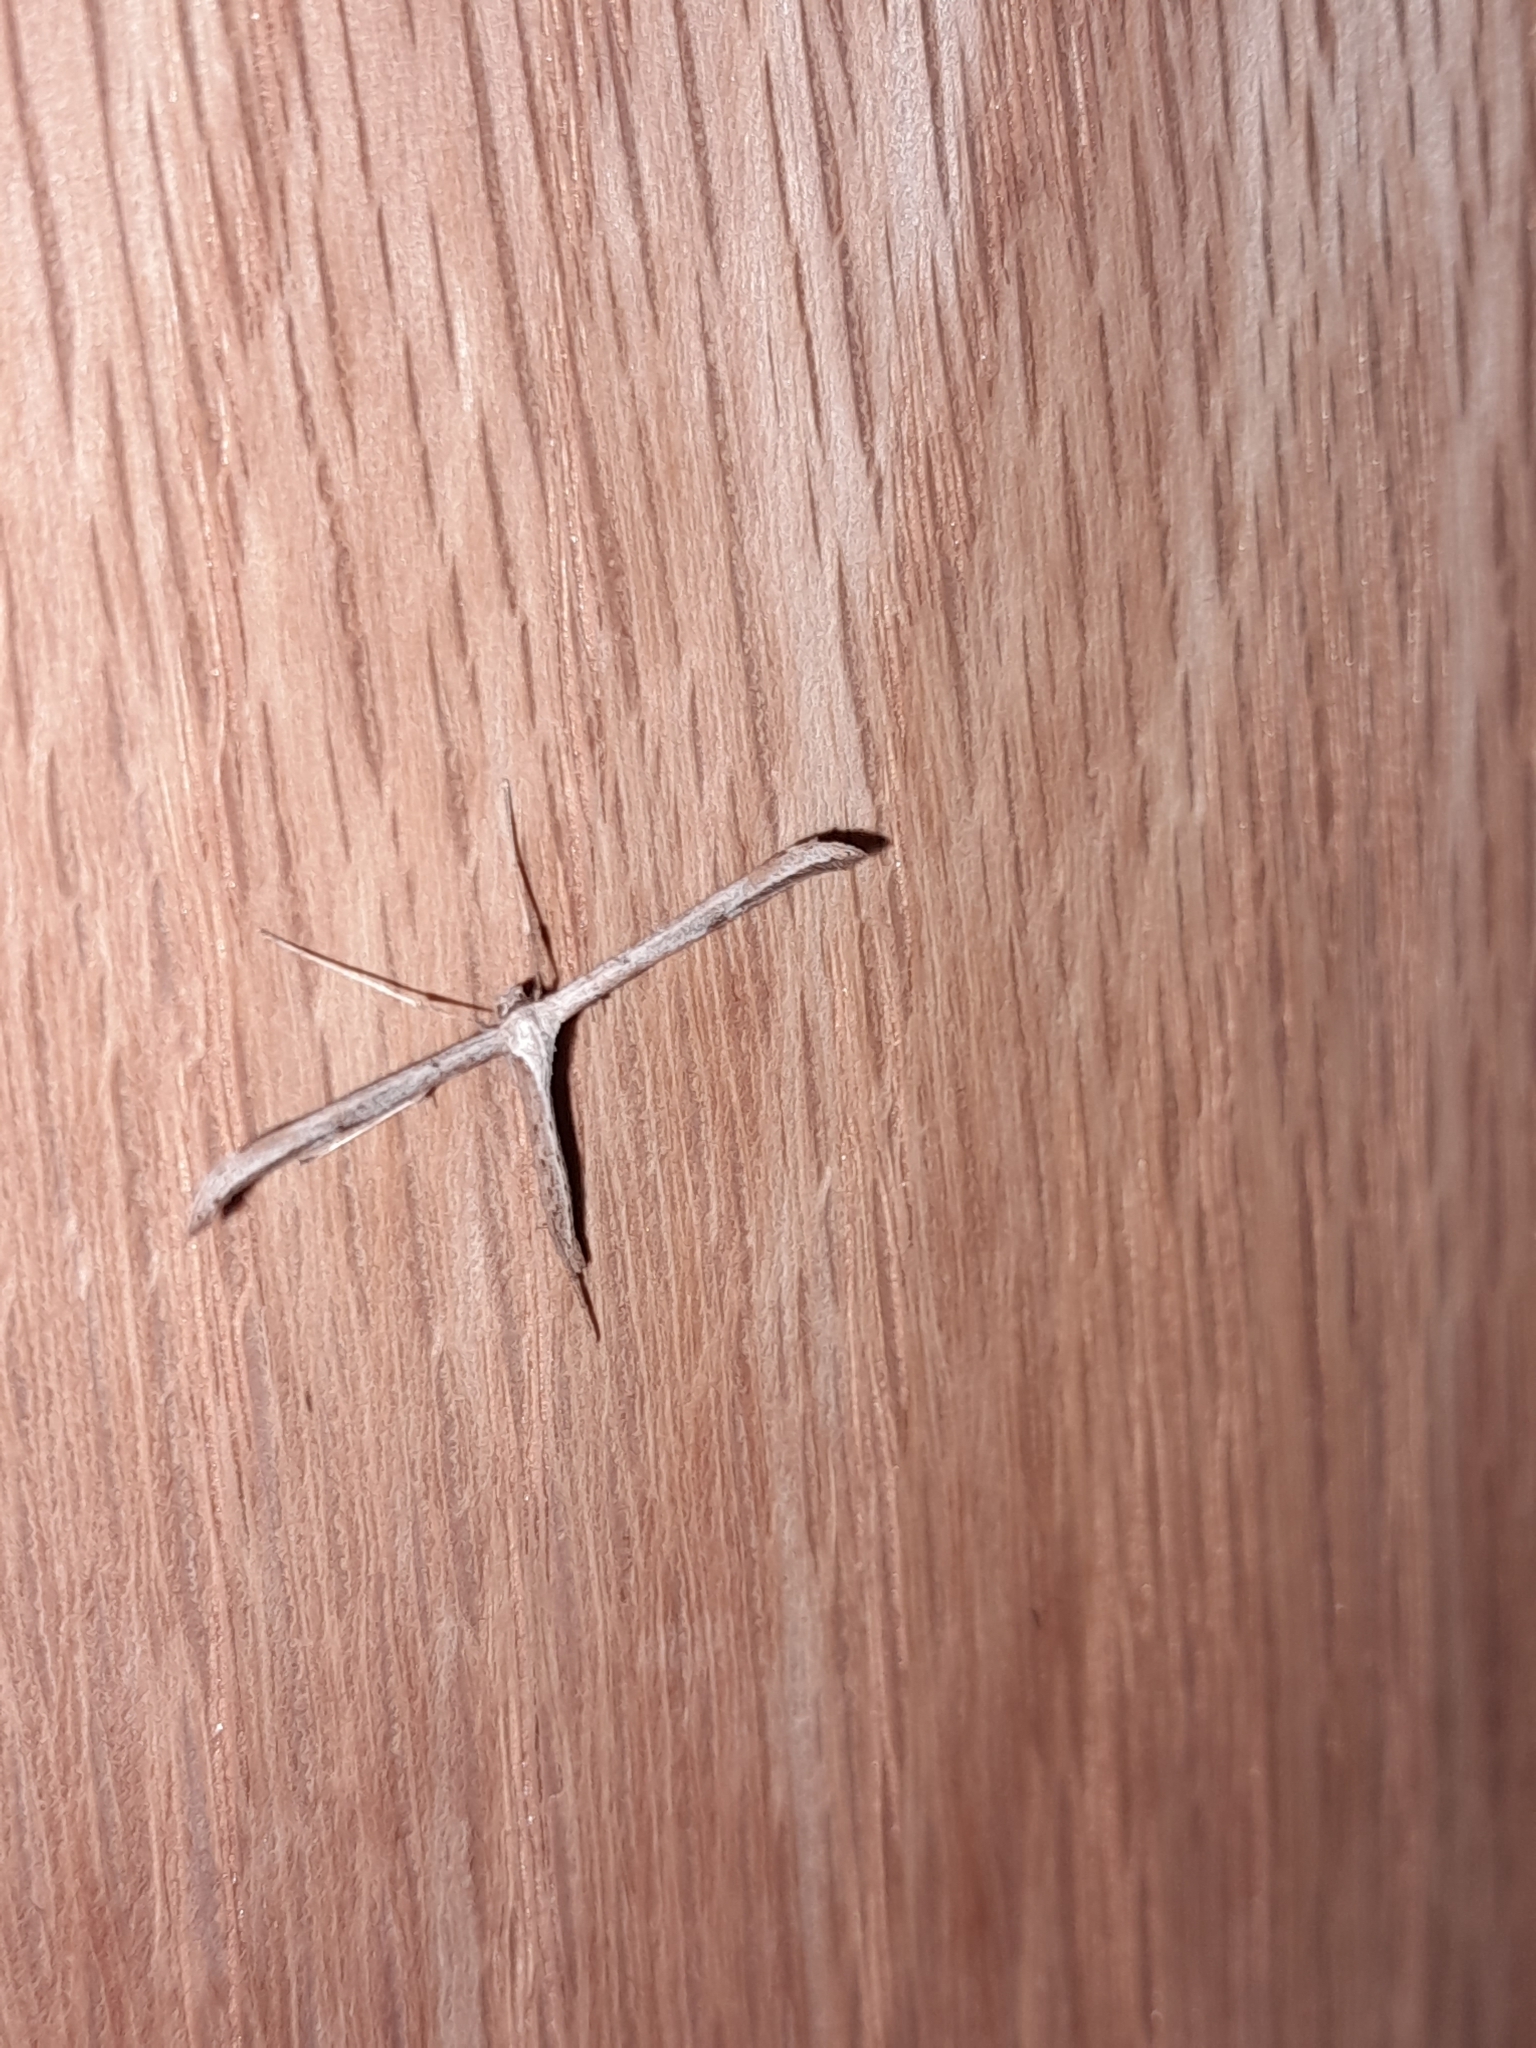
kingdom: Animalia
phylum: Arthropoda
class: Insecta
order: Lepidoptera
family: Pterophoridae
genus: Emmelina
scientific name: Emmelina monodactyla
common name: Common plume
